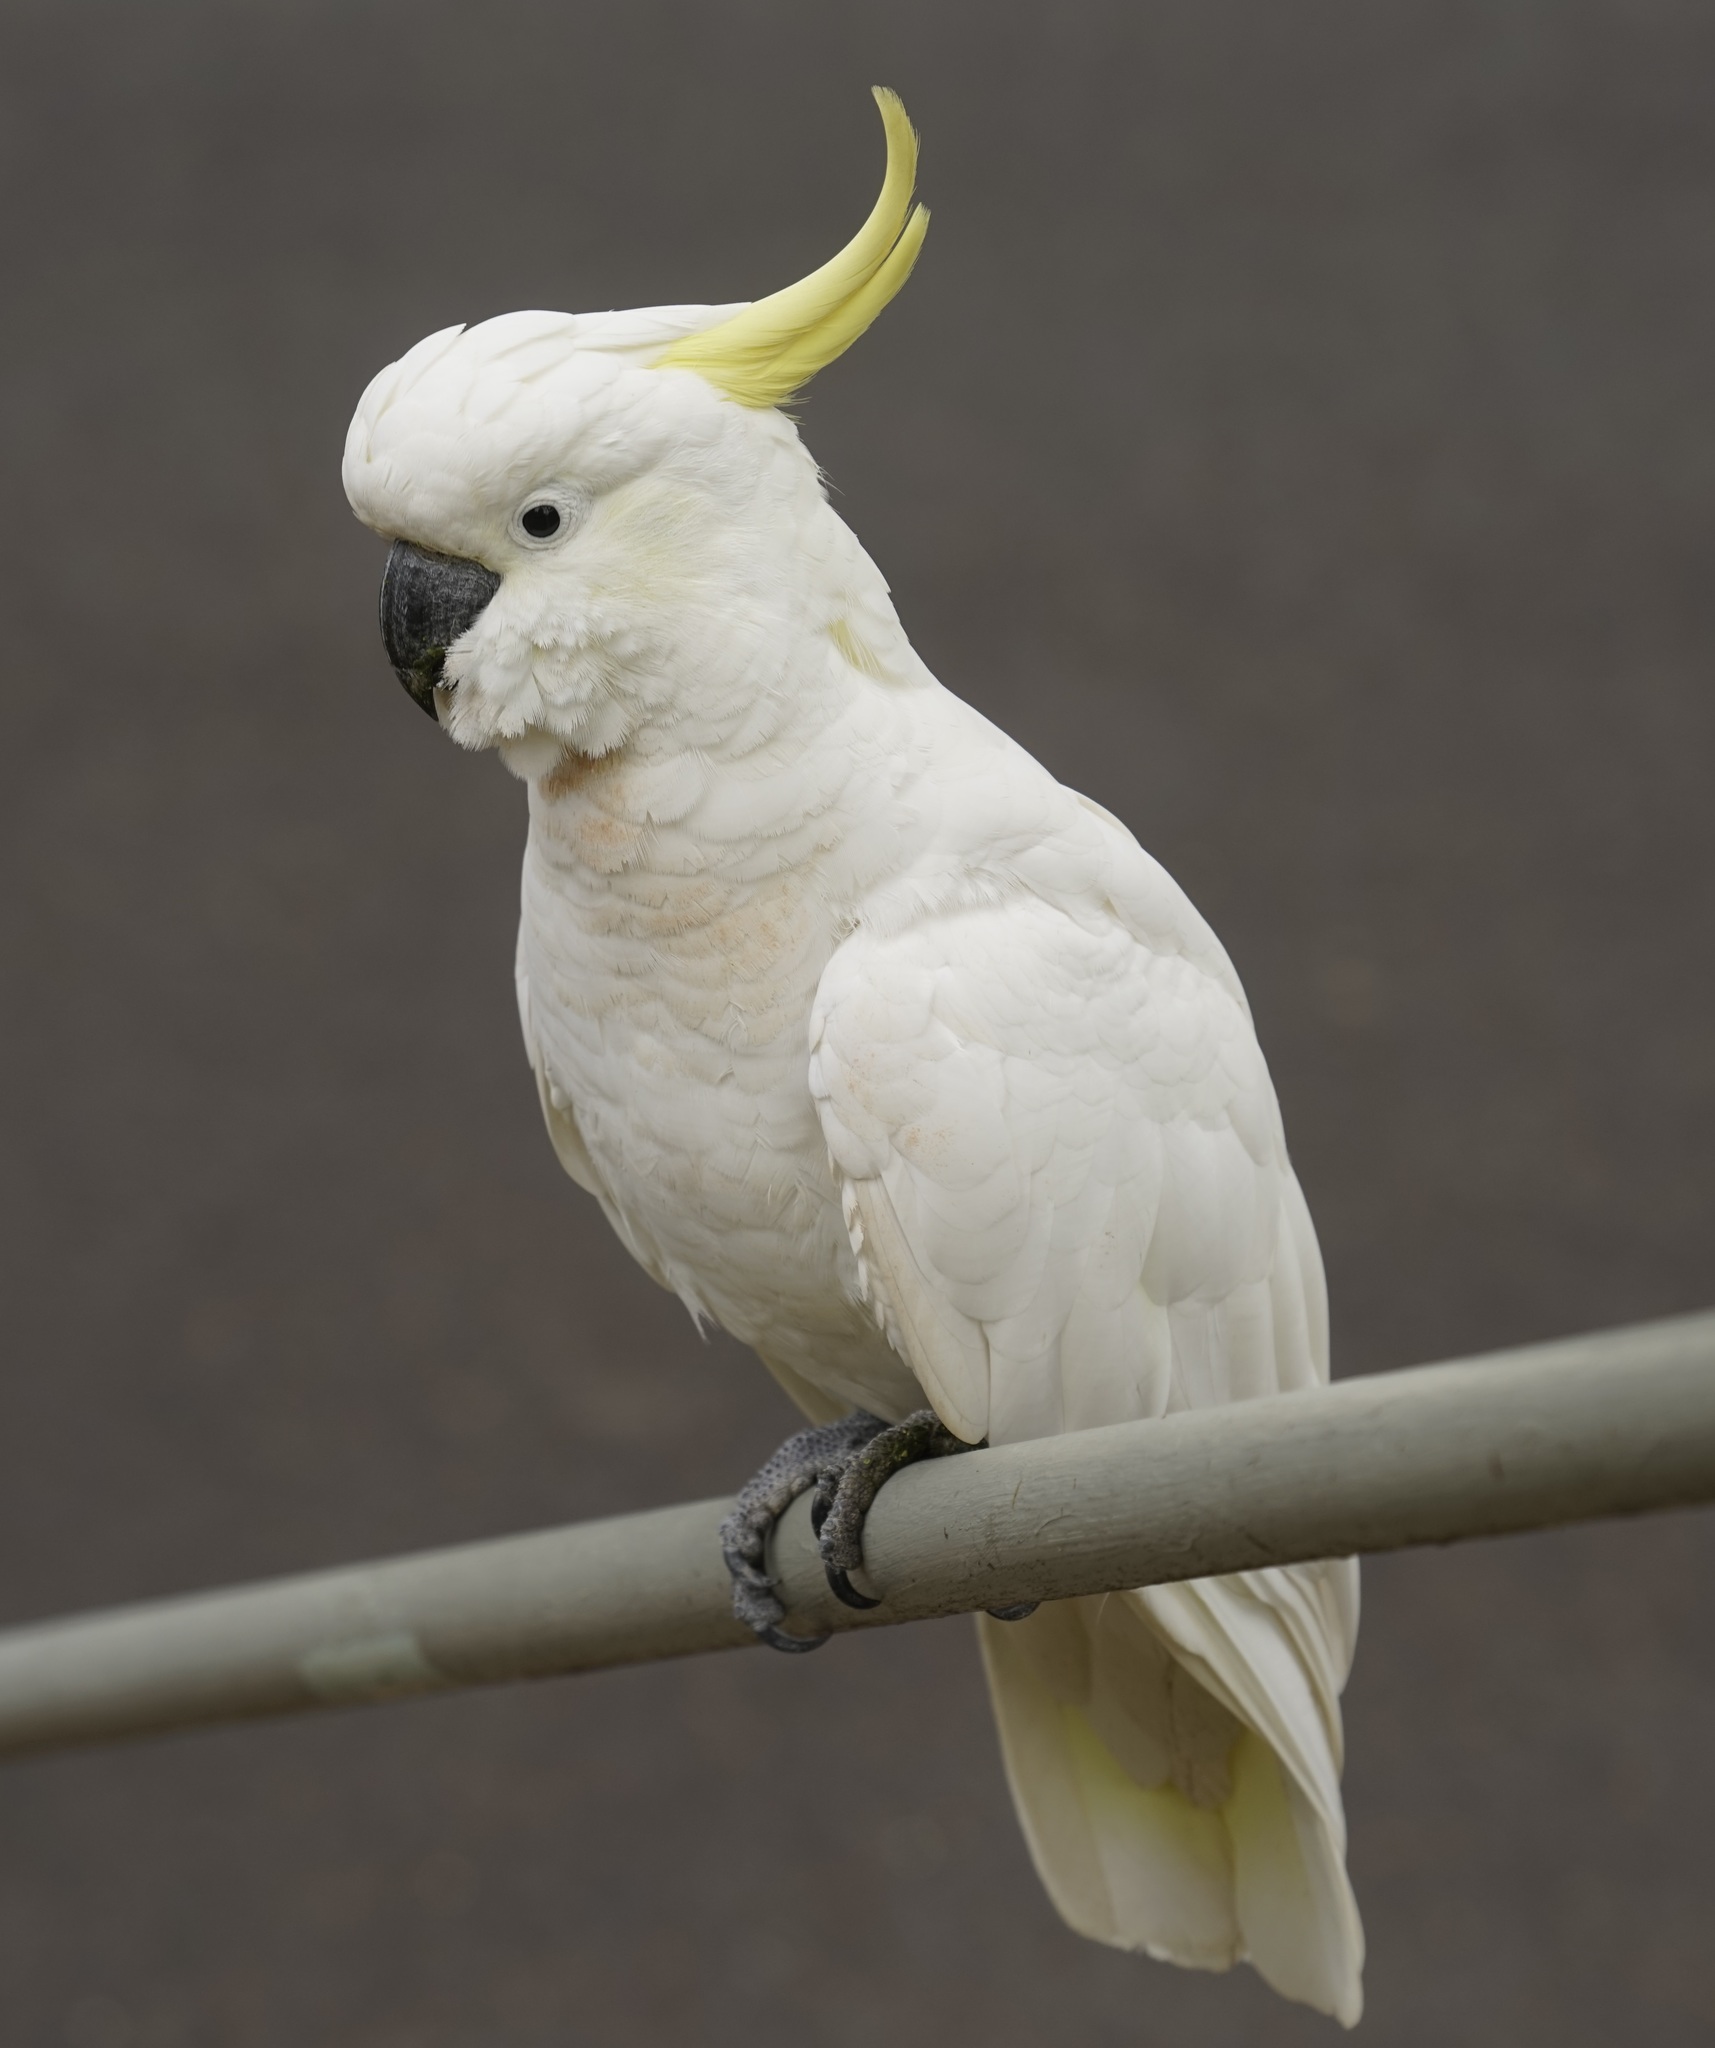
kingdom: Animalia
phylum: Chordata
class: Aves
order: Psittaciformes
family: Psittacidae
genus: Cacatua
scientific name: Cacatua galerita
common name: Sulphur-crested cockatoo
